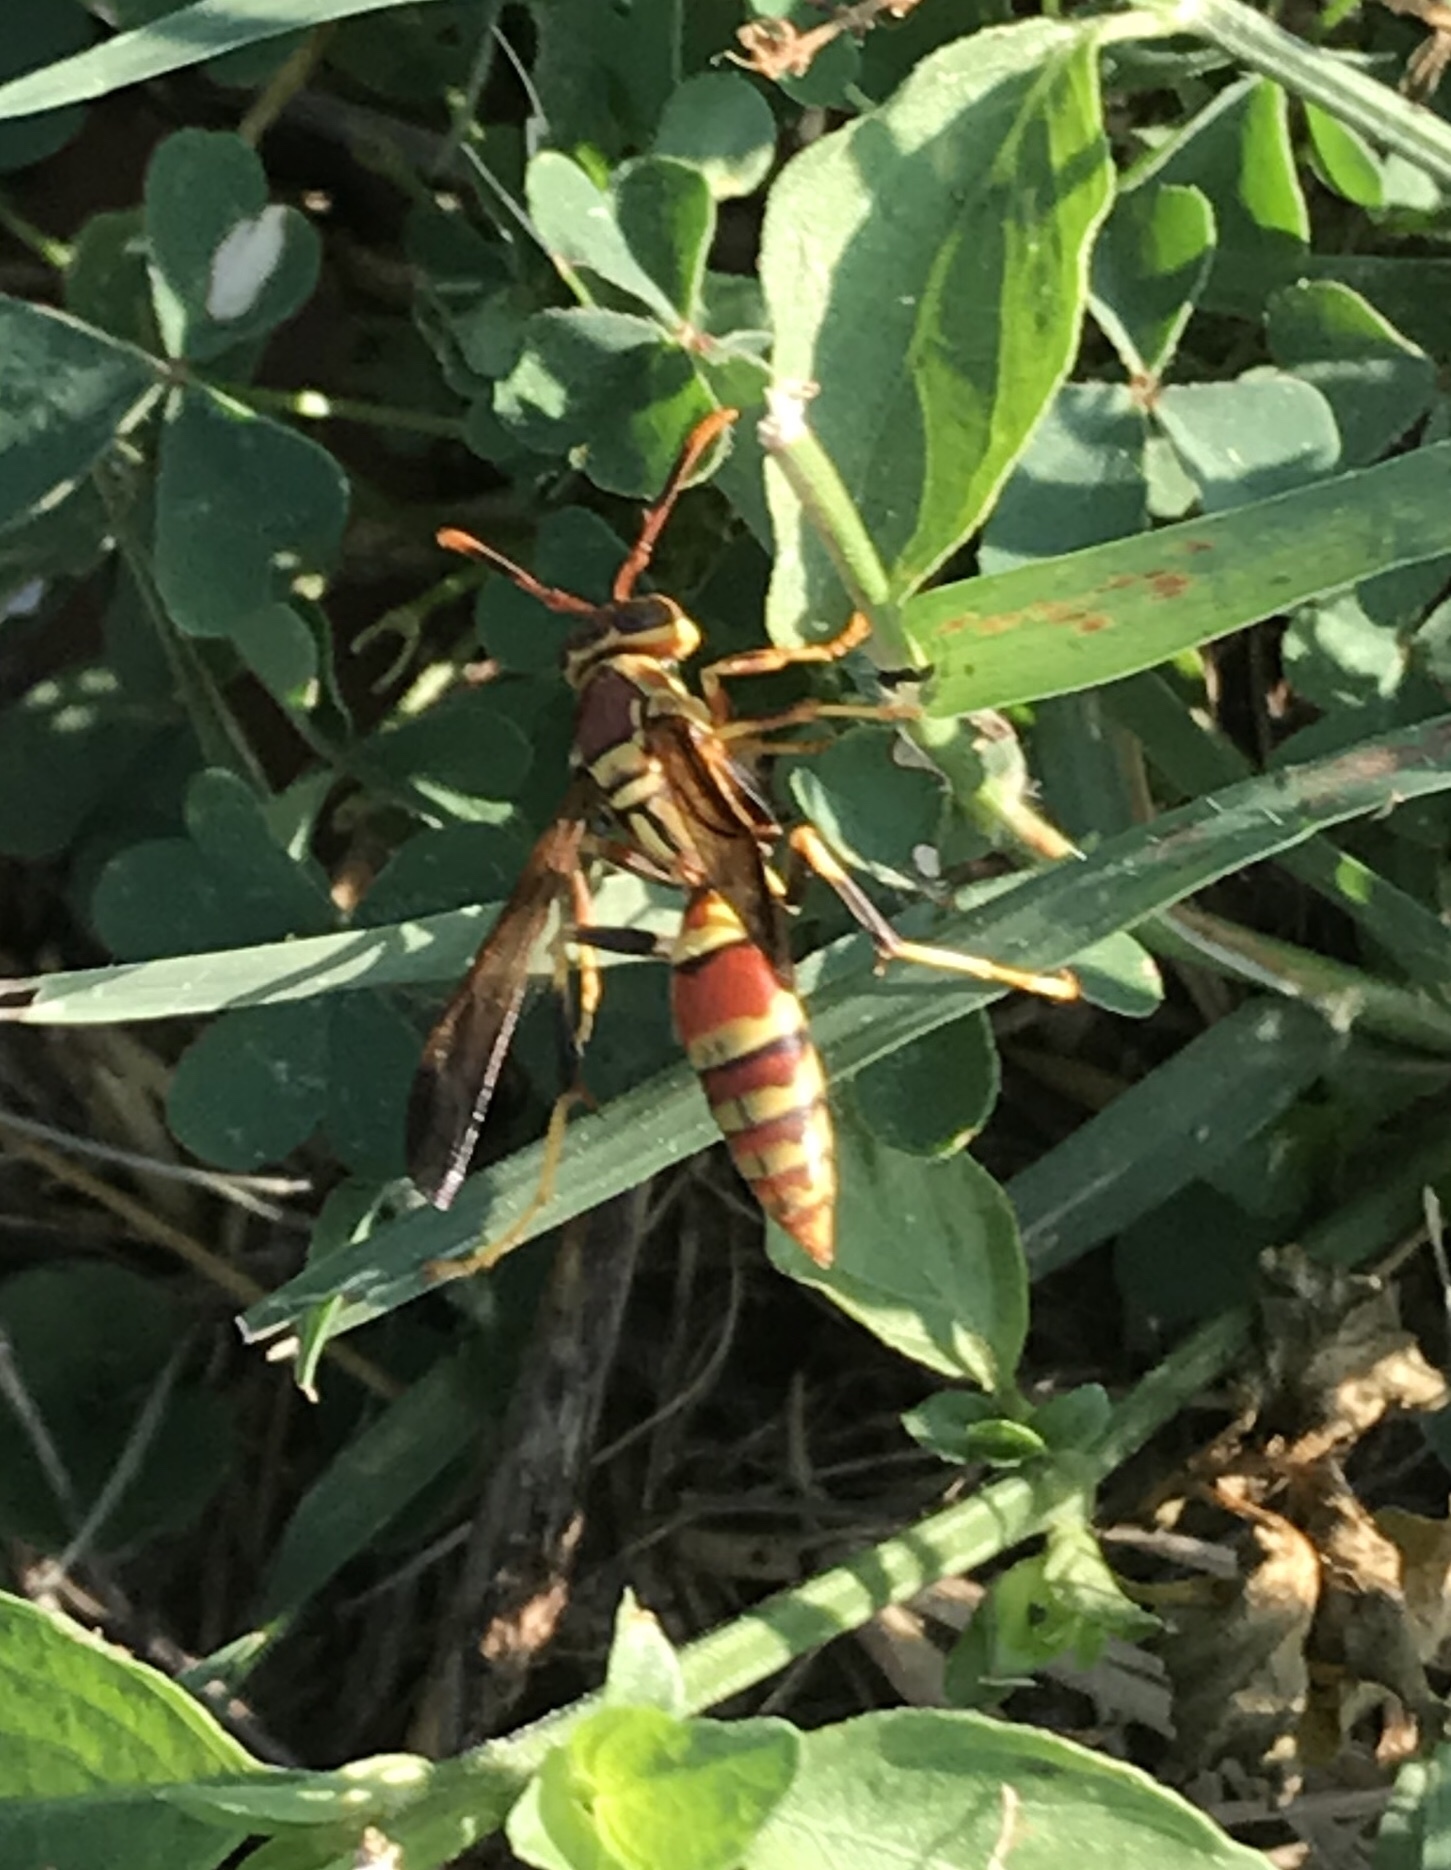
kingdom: Animalia
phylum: Arthropoda
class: Insecta
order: Hymenoptera
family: Eumenidae
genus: Polistes
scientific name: Polistes exclamans
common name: Paper wasp
